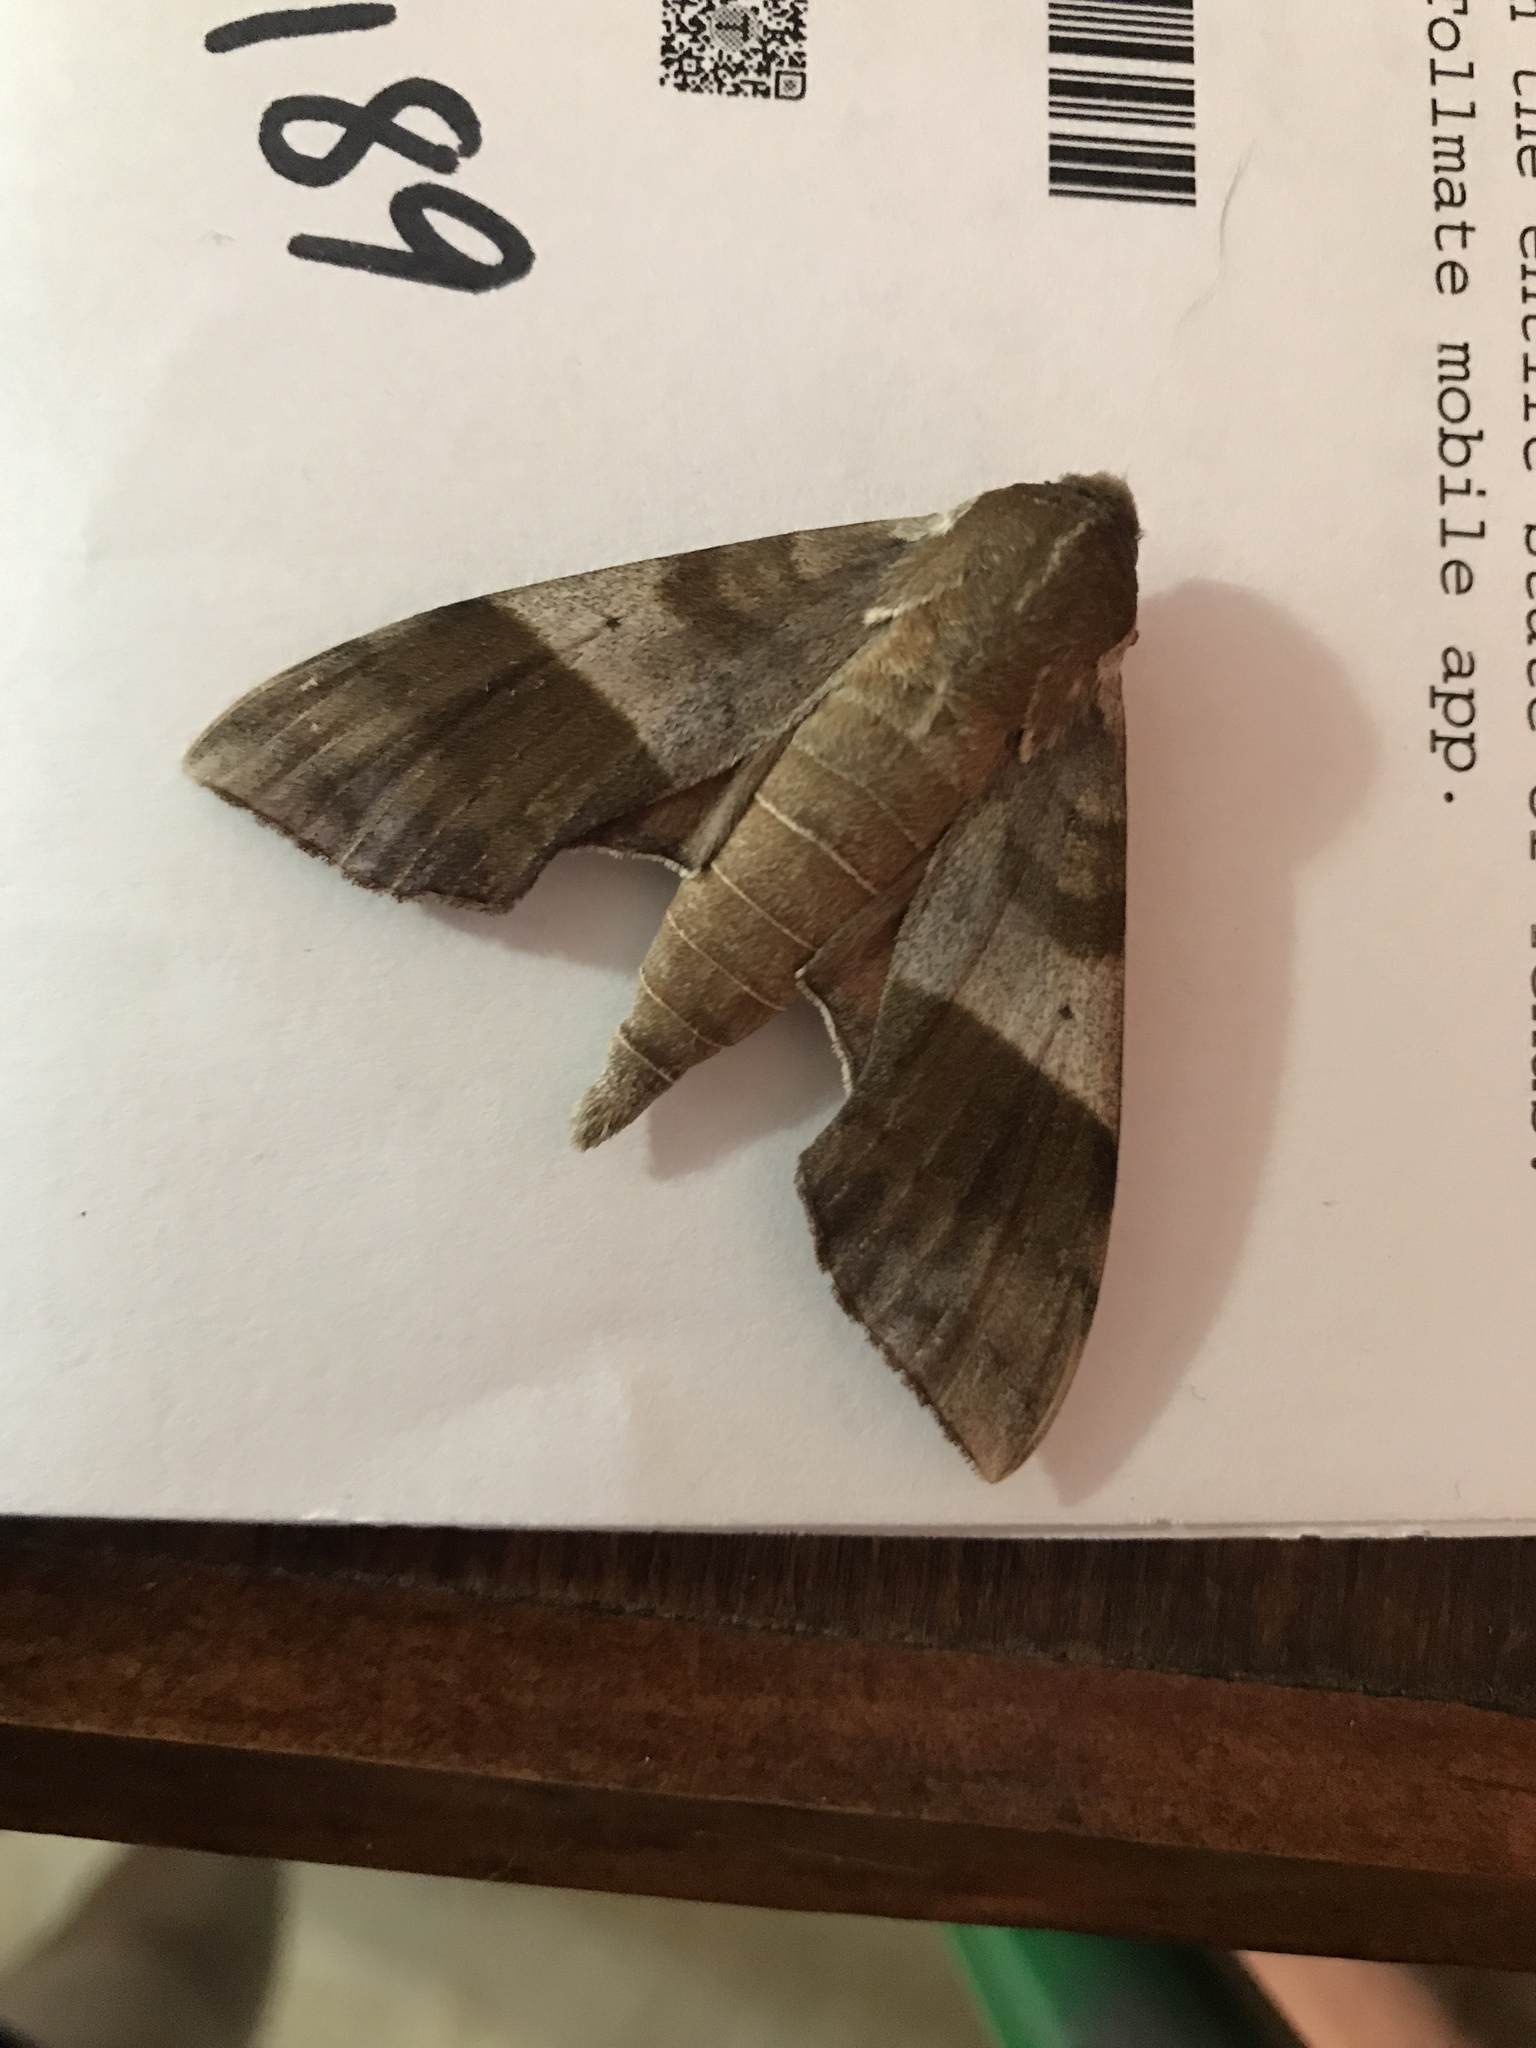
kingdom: Animalia
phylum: Arthropoda
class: Insecta
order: Lepidoptera
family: Sphingidae
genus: Darapsa
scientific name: Darapsa choerilus
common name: Azalea sphinx
